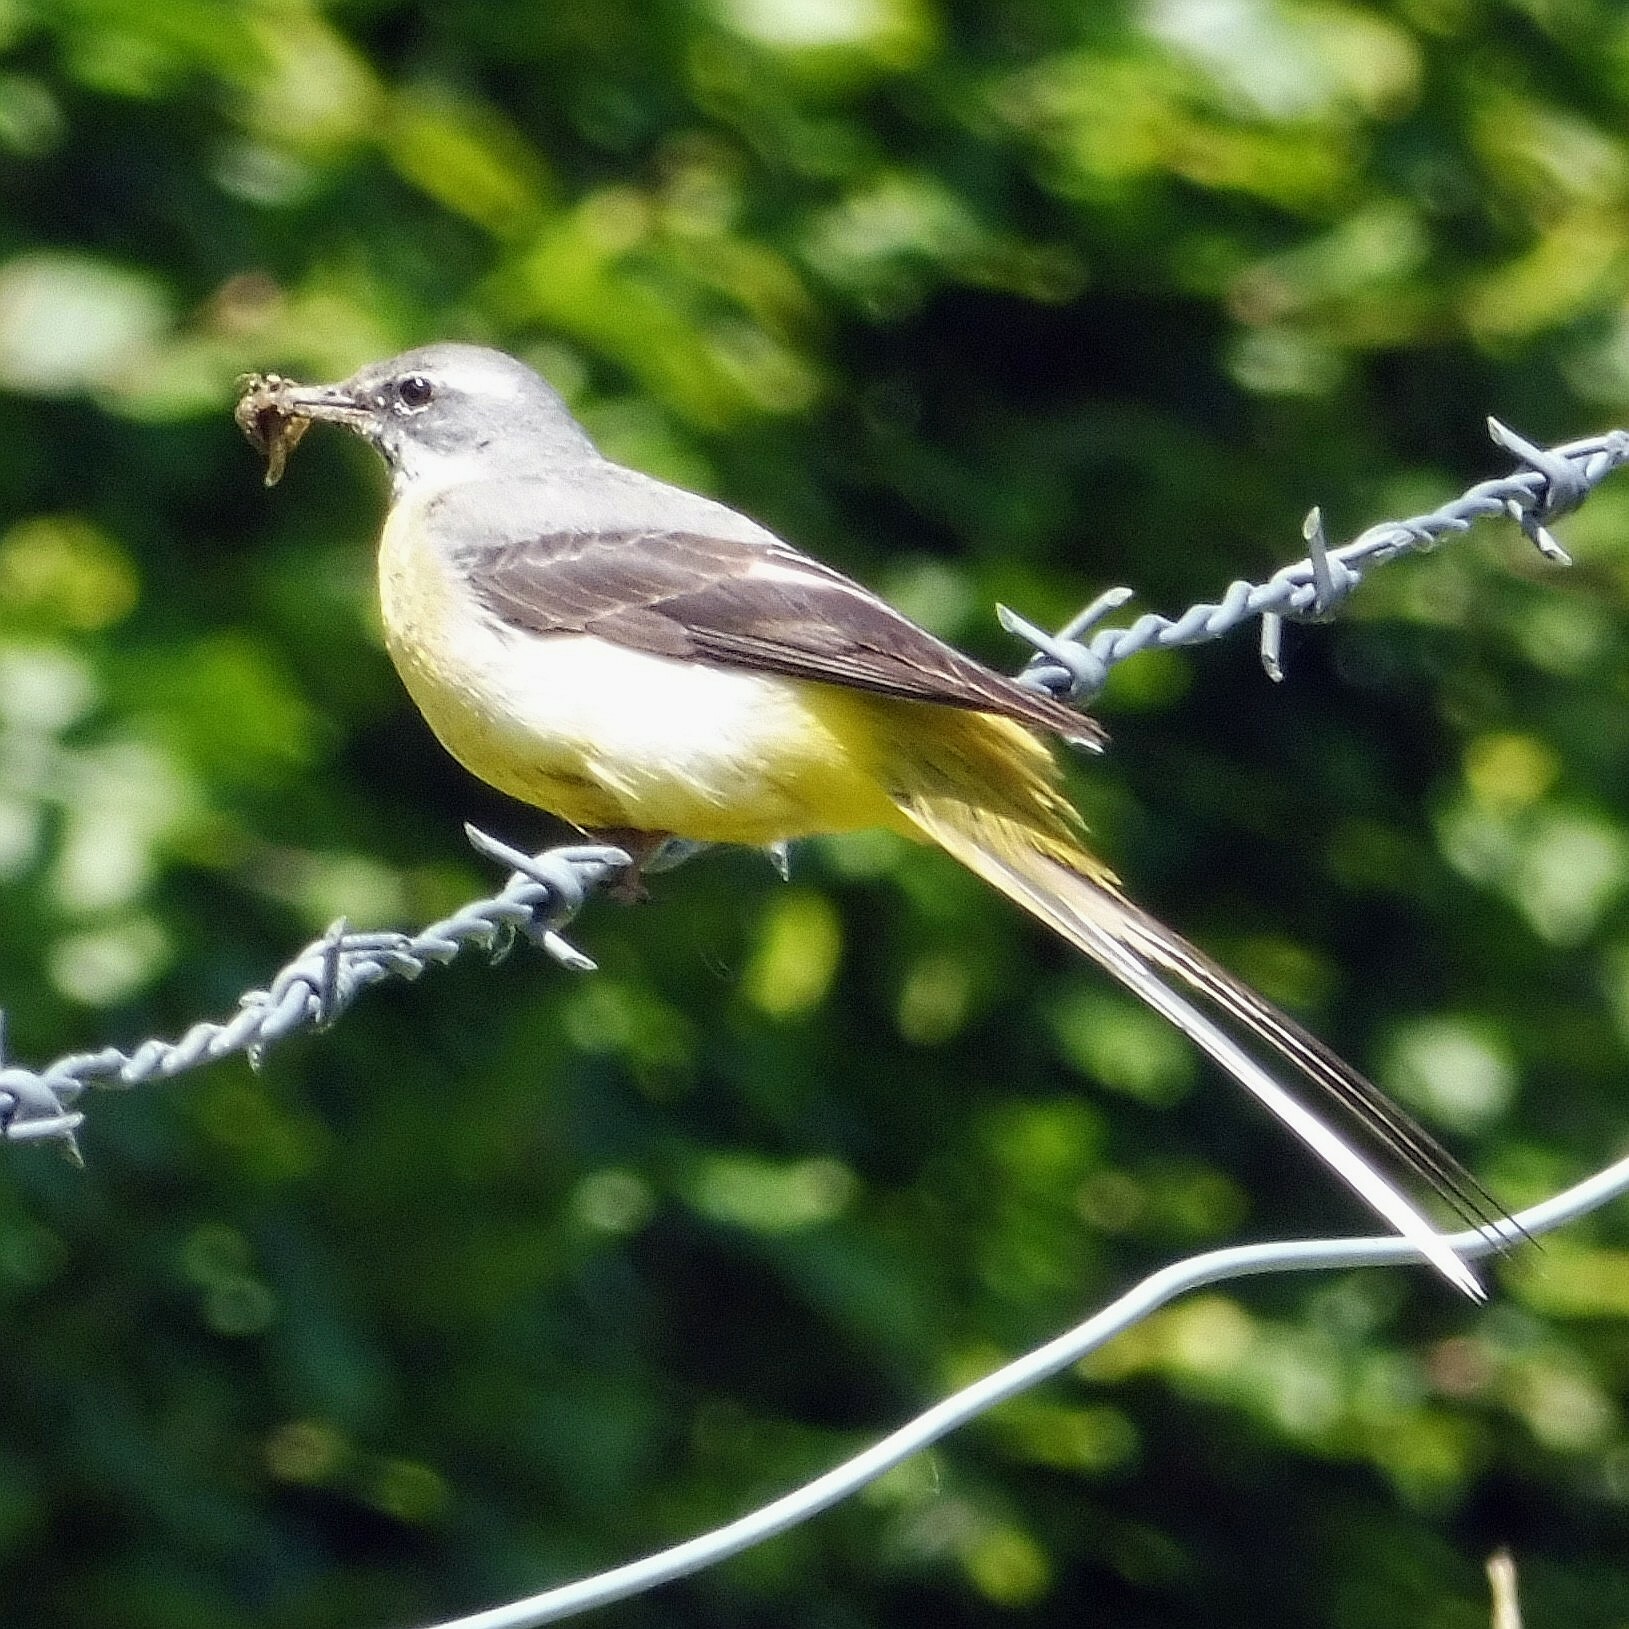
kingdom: Animalia
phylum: Chordata
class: Aves
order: Passeriformes
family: Motacillidae
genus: Motacilla
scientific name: Motacilla cinerea
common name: Grey wagtail
